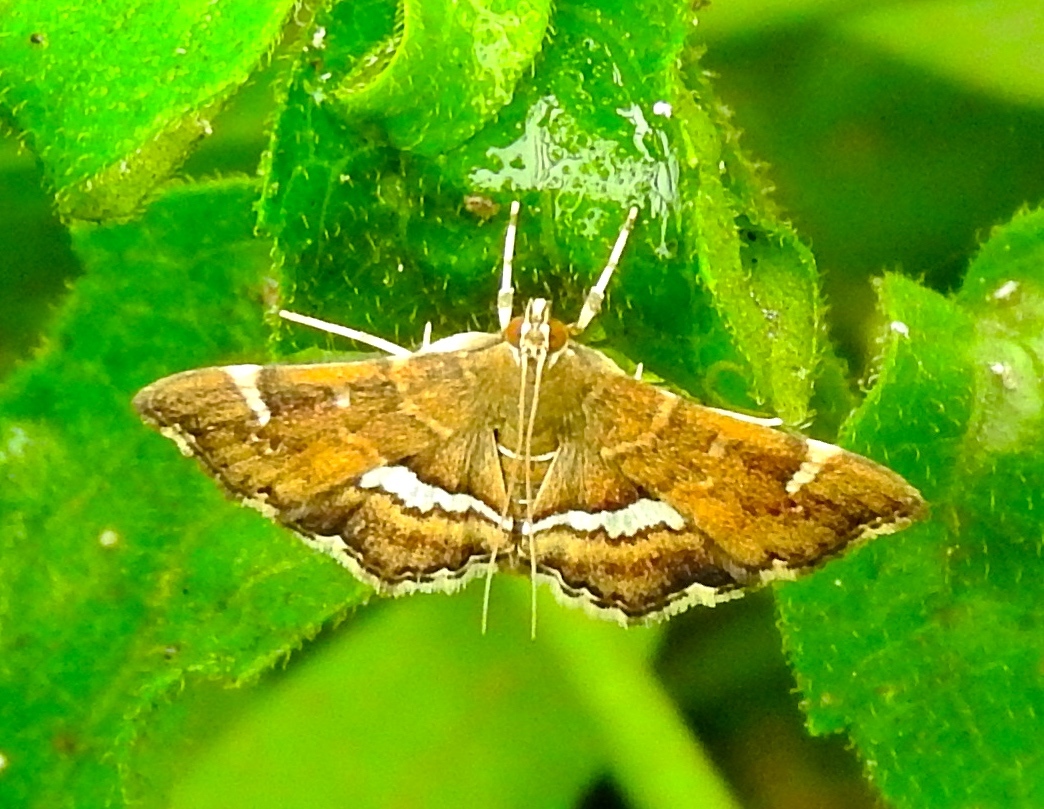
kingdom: Animalia
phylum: Arthropoda
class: Insecta
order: Lepidoptera
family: Crambidae
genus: Hymenia
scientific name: Hymenia perspectalis
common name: Spotted beet webworm
